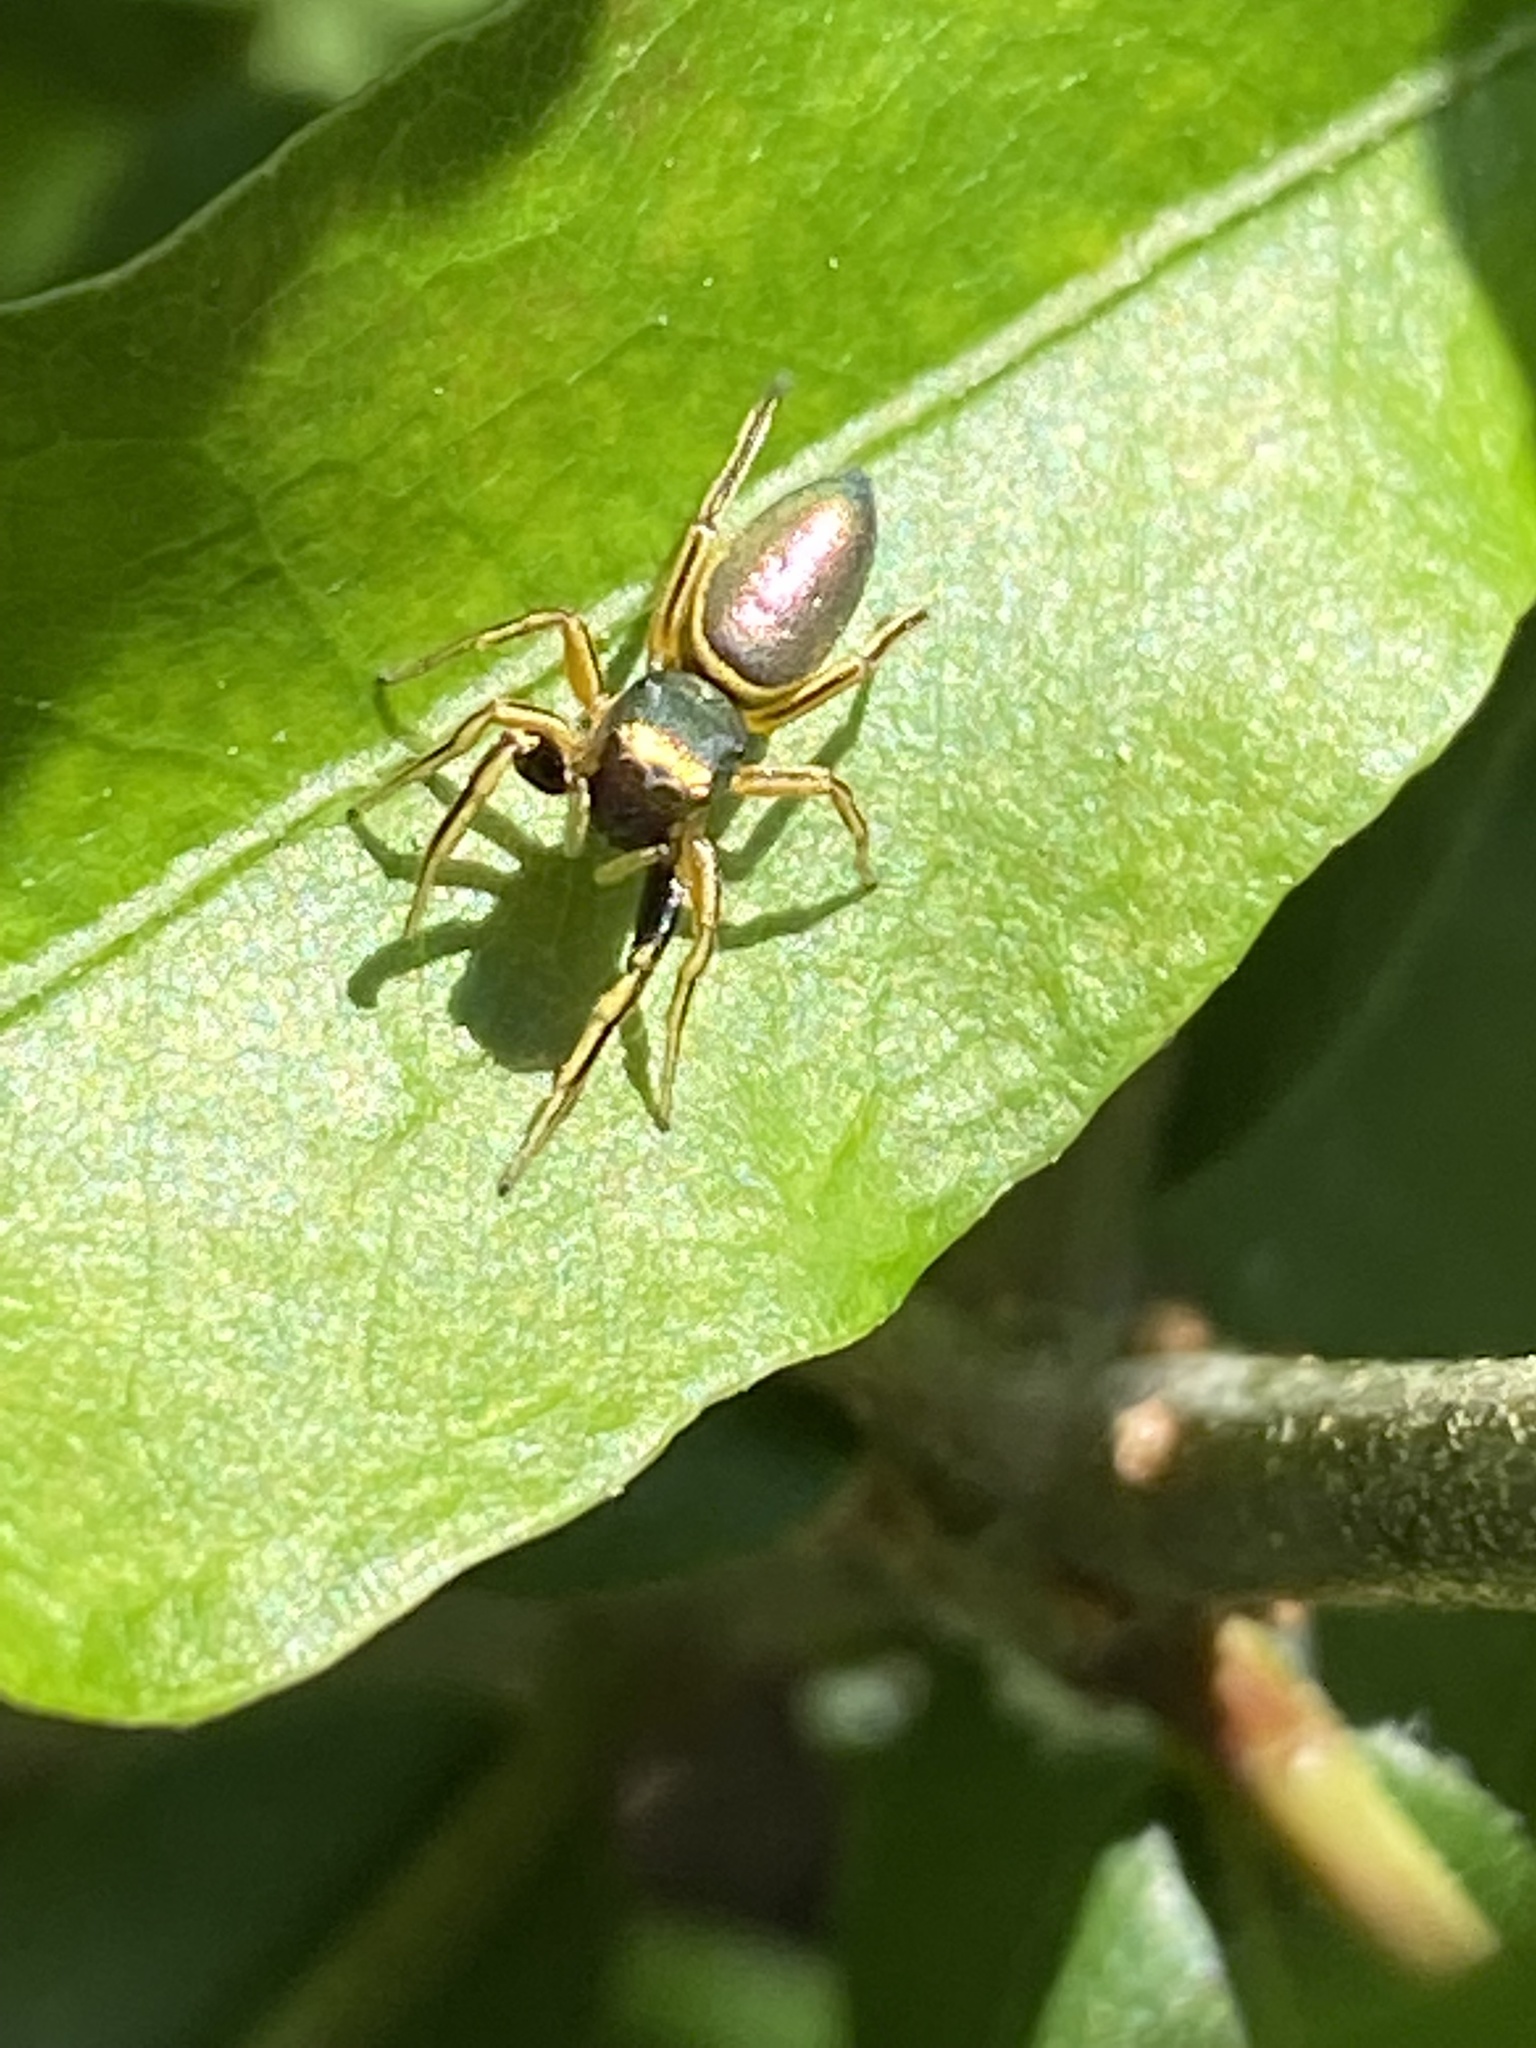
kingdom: Animalia
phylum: Arthropoda
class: Arachnida
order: Araneae
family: Salticidae
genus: Tutelina
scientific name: Tutelina elegans
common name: Thin-spined jumping spider
